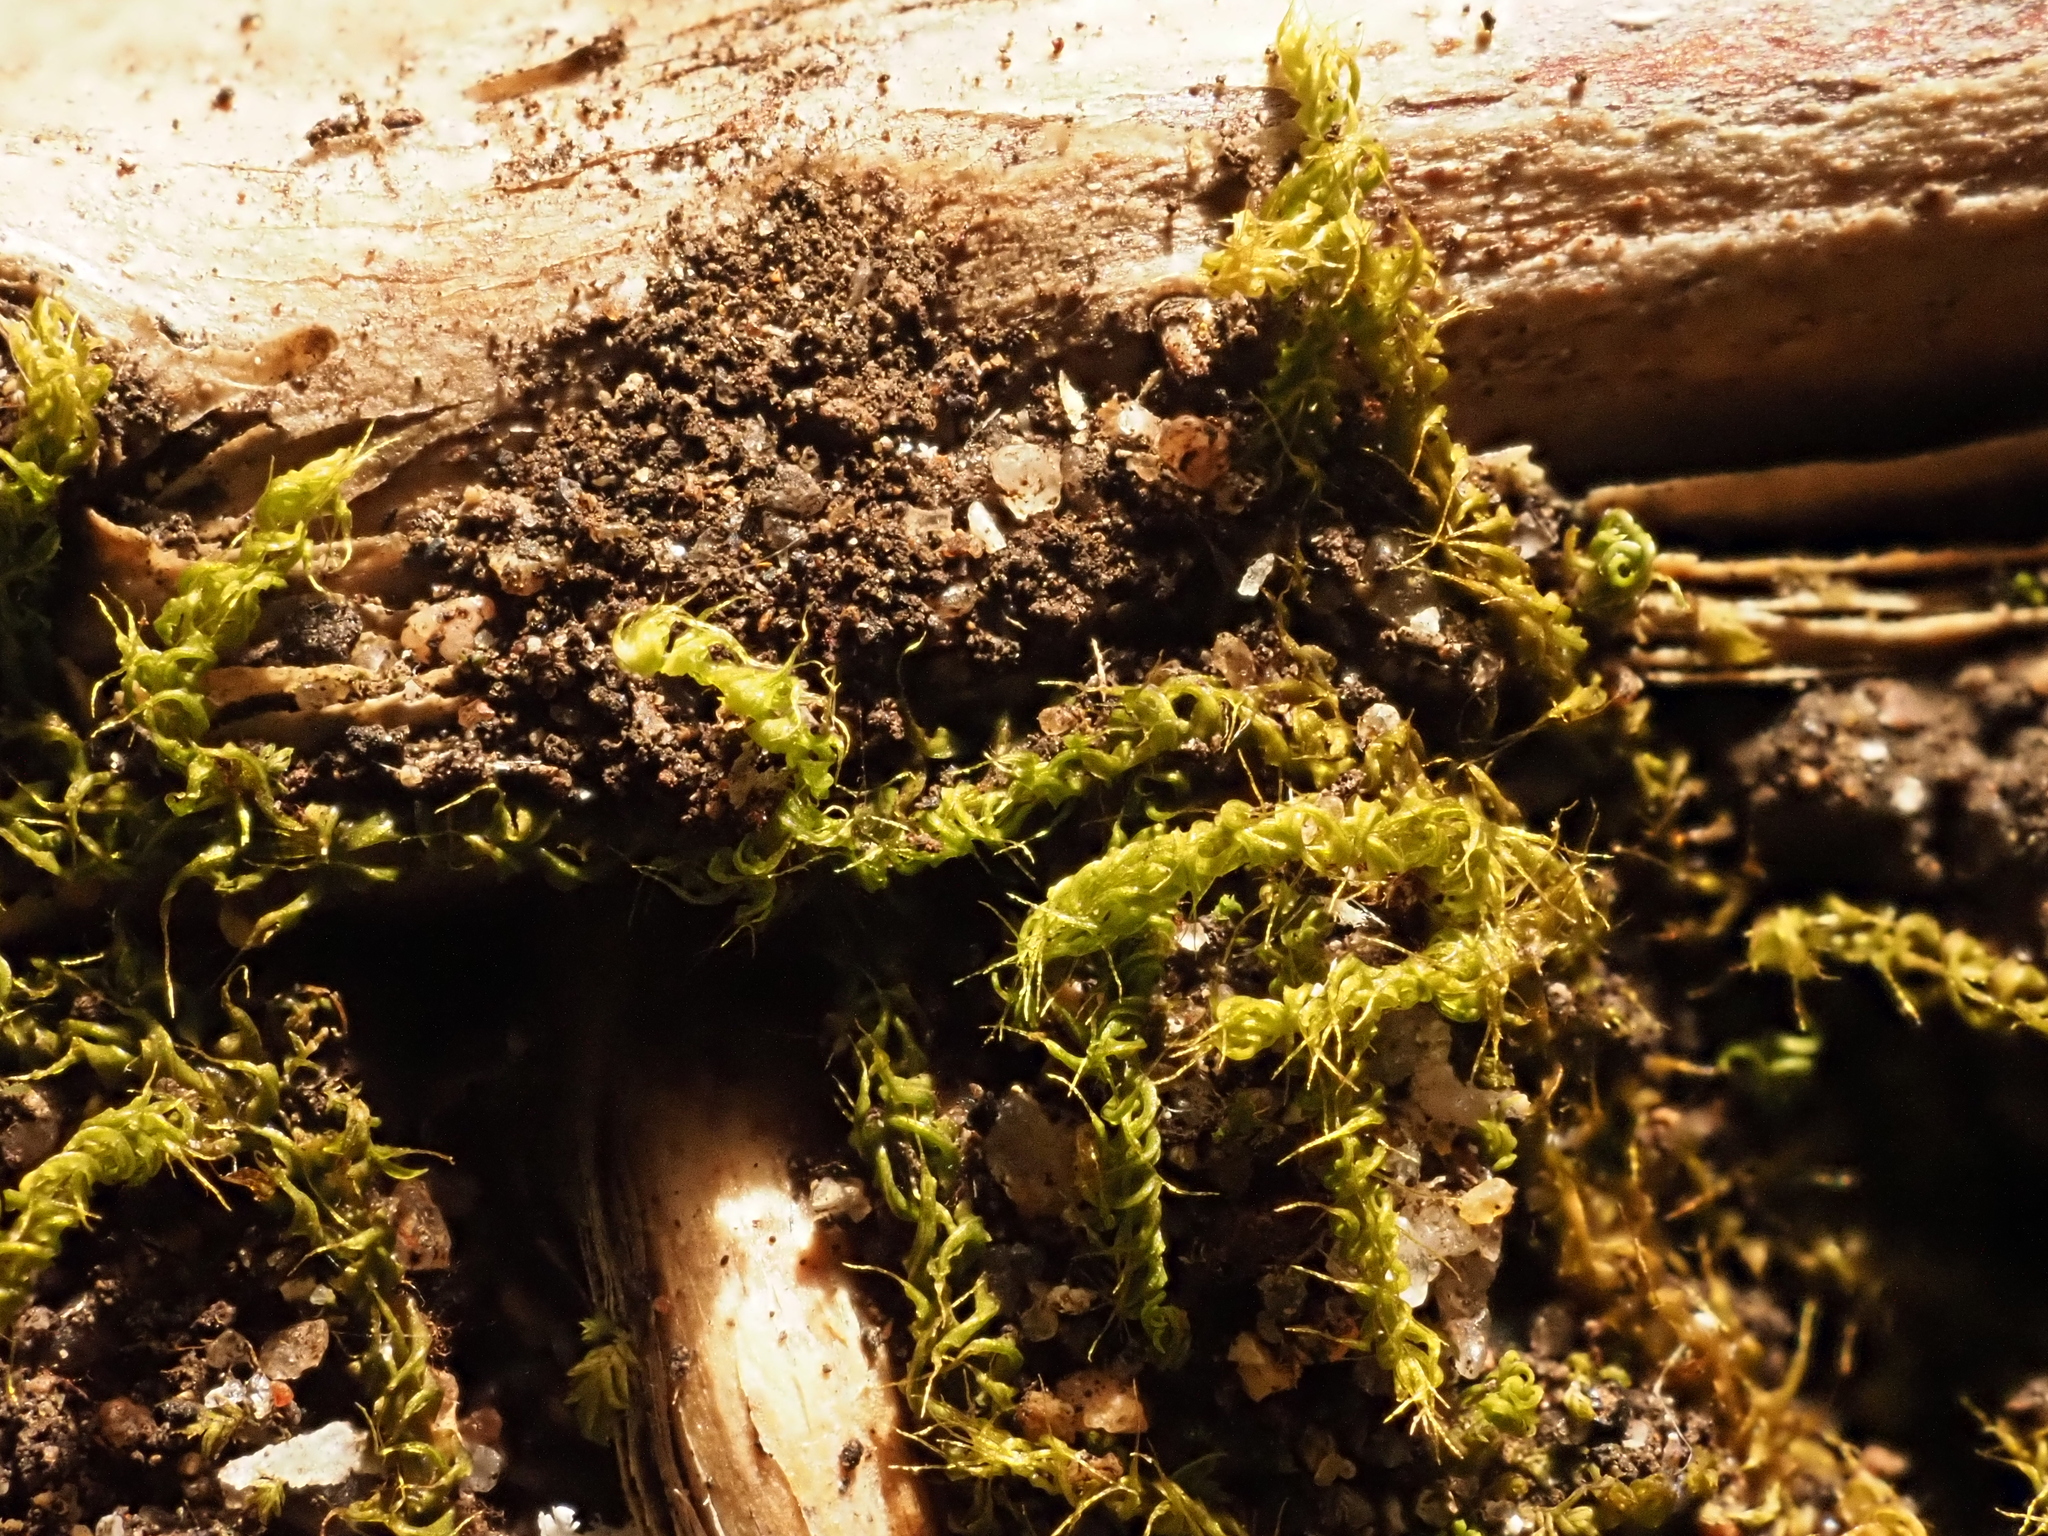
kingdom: Plantae
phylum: Bryophyta
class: Bryopsida
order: Hypnodendrales
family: Racopilaceae
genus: Racopilum
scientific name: Racopilum cuspidigerum
